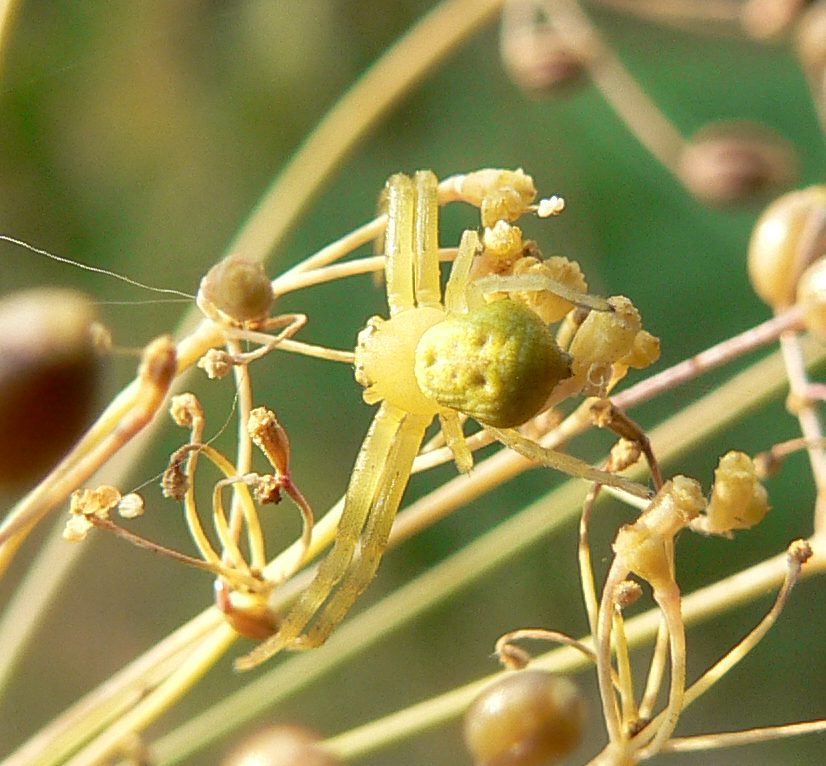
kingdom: Animalia
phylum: Arthropoda
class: Arachnida
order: Araneae
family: Thomisidae
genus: Ebrechtella
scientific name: Ebrechtella tricuspidata
